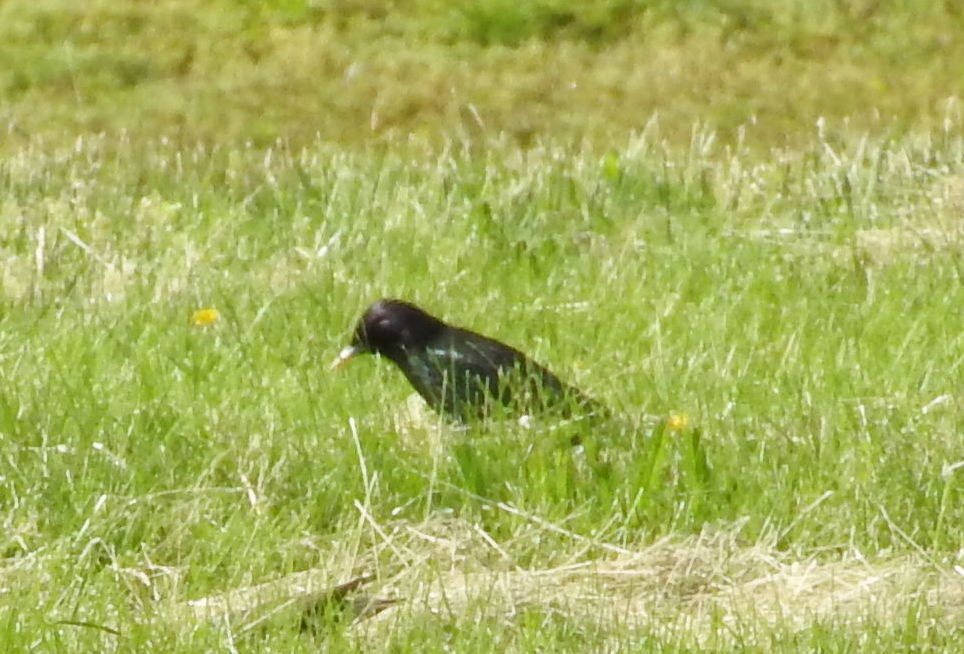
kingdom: Animalia
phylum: Chordata
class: Aves
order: Passeriformes
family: Sturnidae
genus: Sturnus
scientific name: Sturnus vulgaris
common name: Common starling
